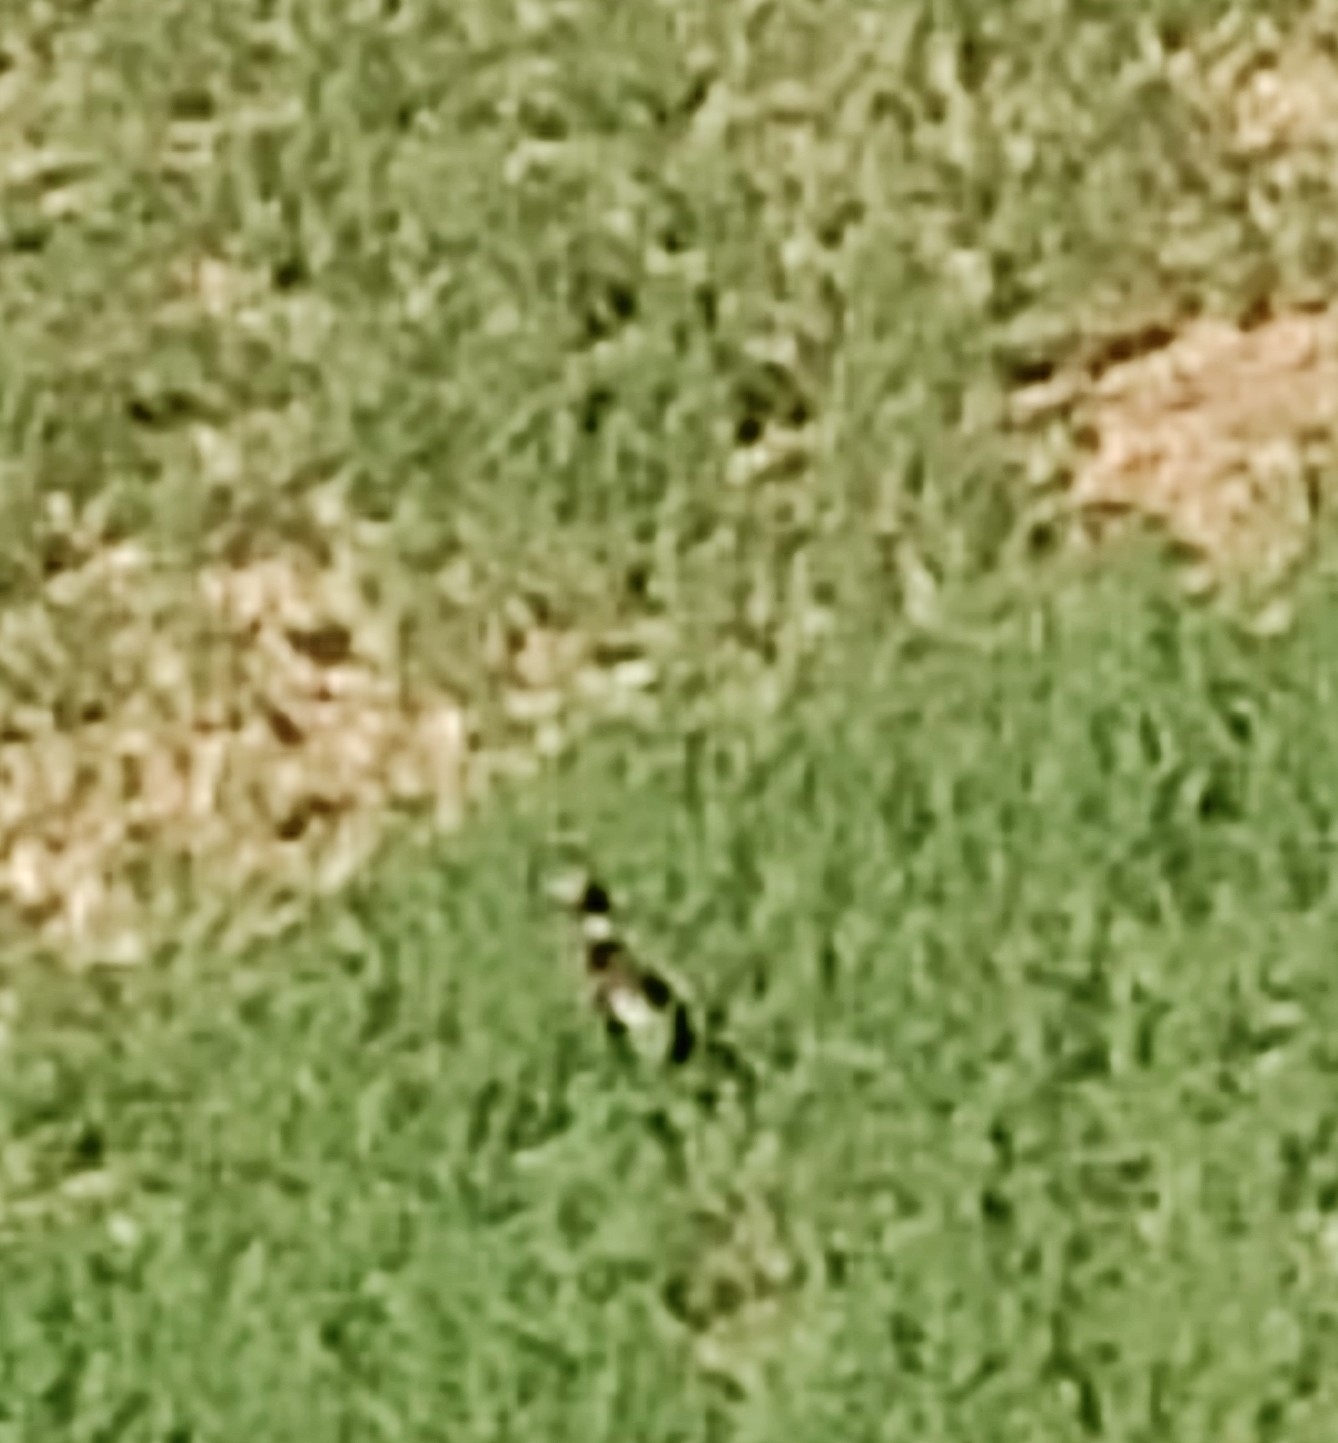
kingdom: Animalia
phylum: Chordata
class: Aves
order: Galliformes
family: Phasianidae
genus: Phasianus
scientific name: Phasianus colchicus
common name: Common pheasant
